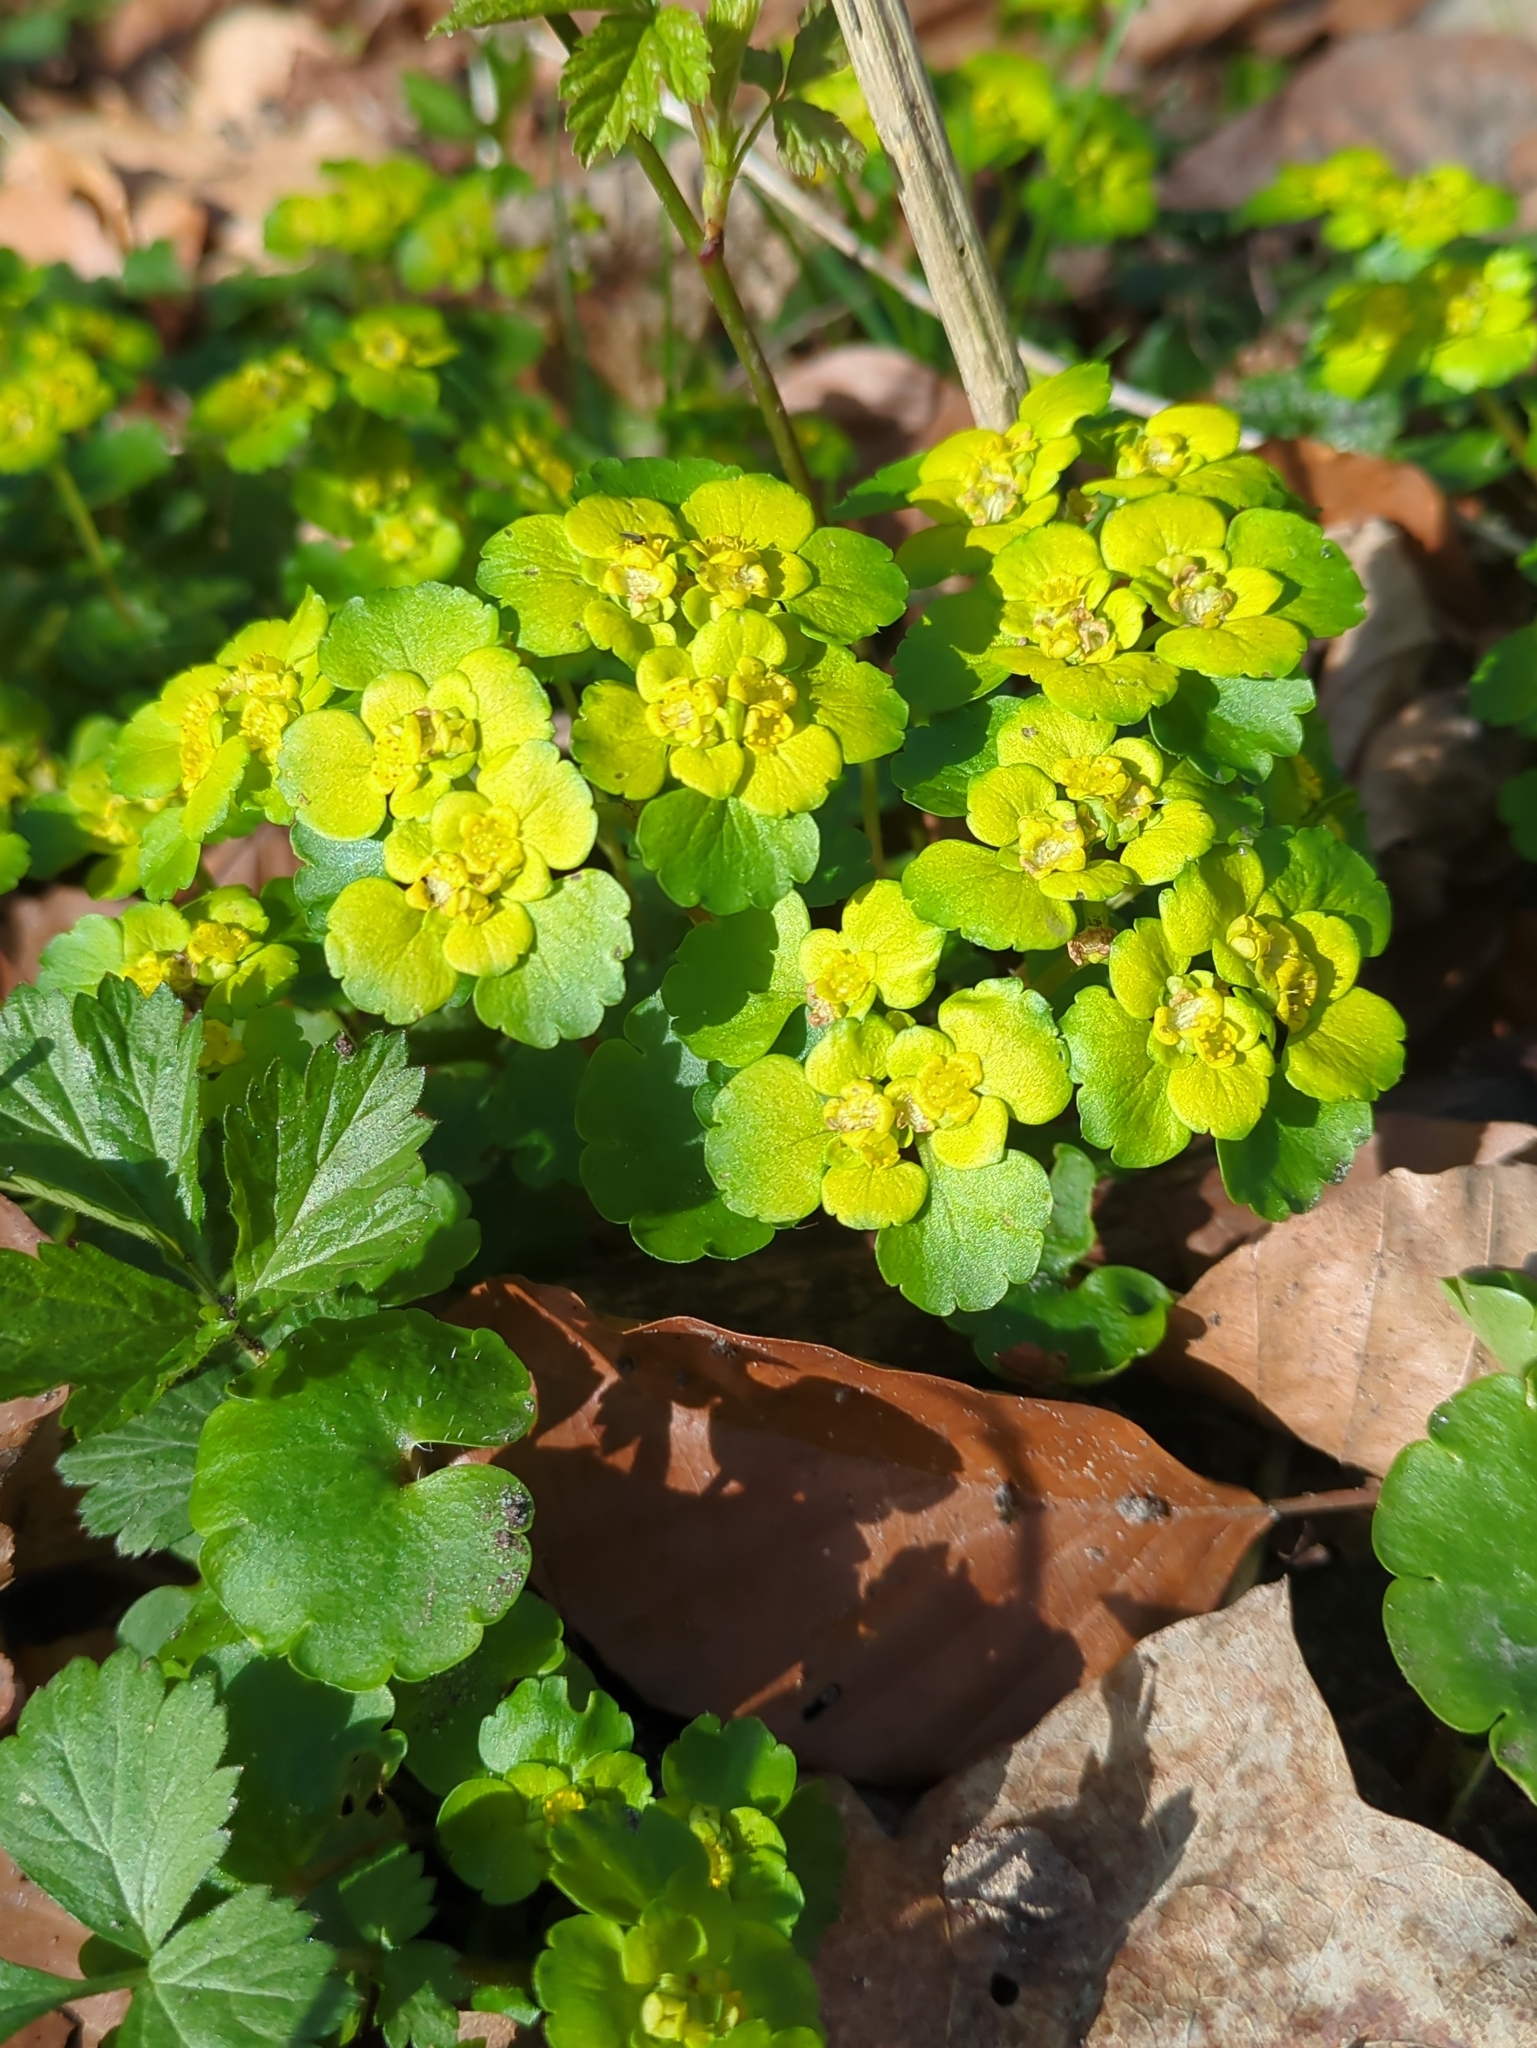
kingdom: Plantae
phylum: Tracheophyta
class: Magnoliopsida
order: Saxifragales
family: Saxifragaceae
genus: Chrysosplenium
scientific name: Chrysosplenium alternifolium
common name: Alternate-leaved golden-saxifrage
